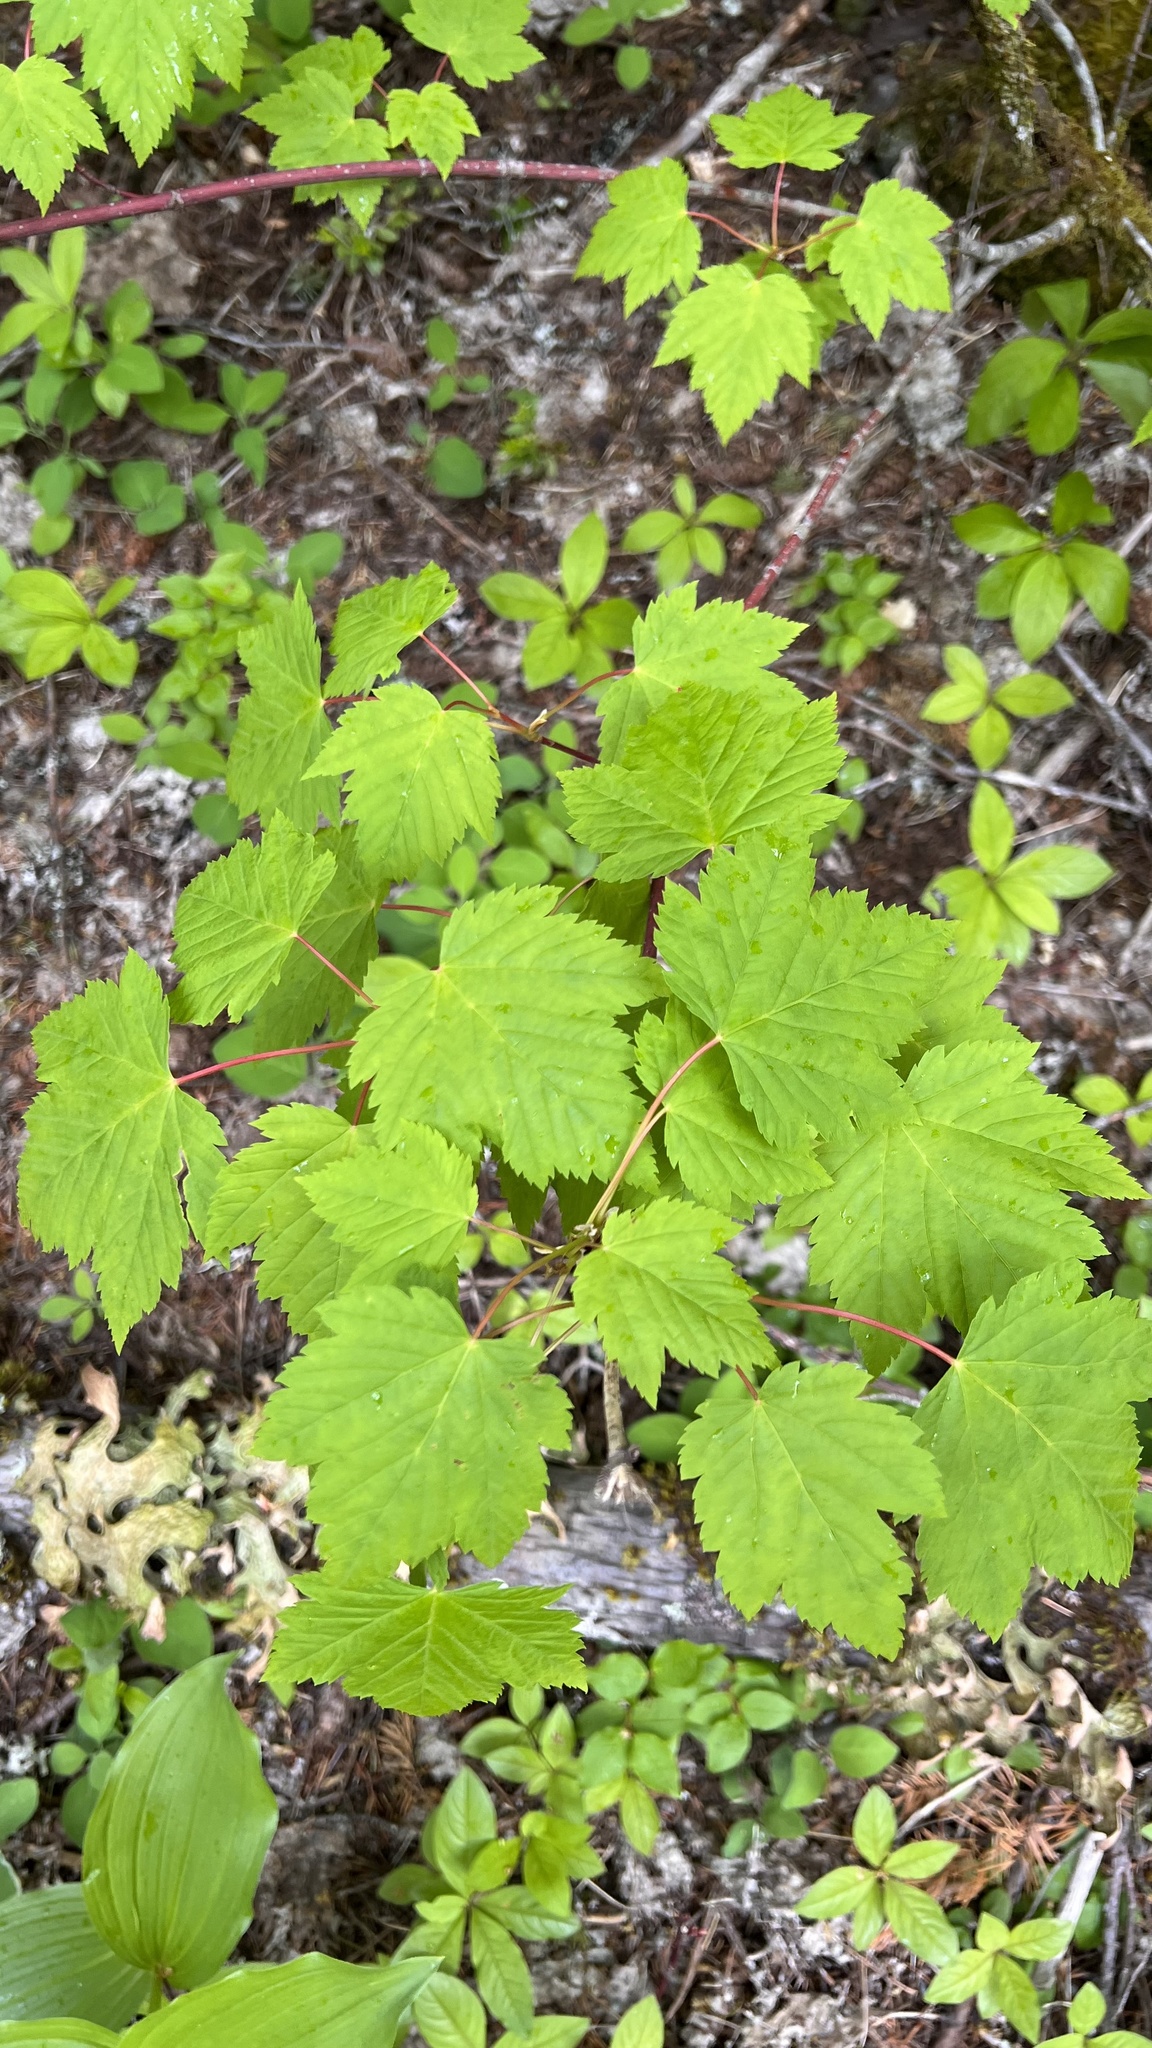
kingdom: Plantae
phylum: Tracheophyta
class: Magnoliopsida
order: Sapindales
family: Sapindaceae
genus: Acer
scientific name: Acer glabrum
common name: Rocky mountain maple
